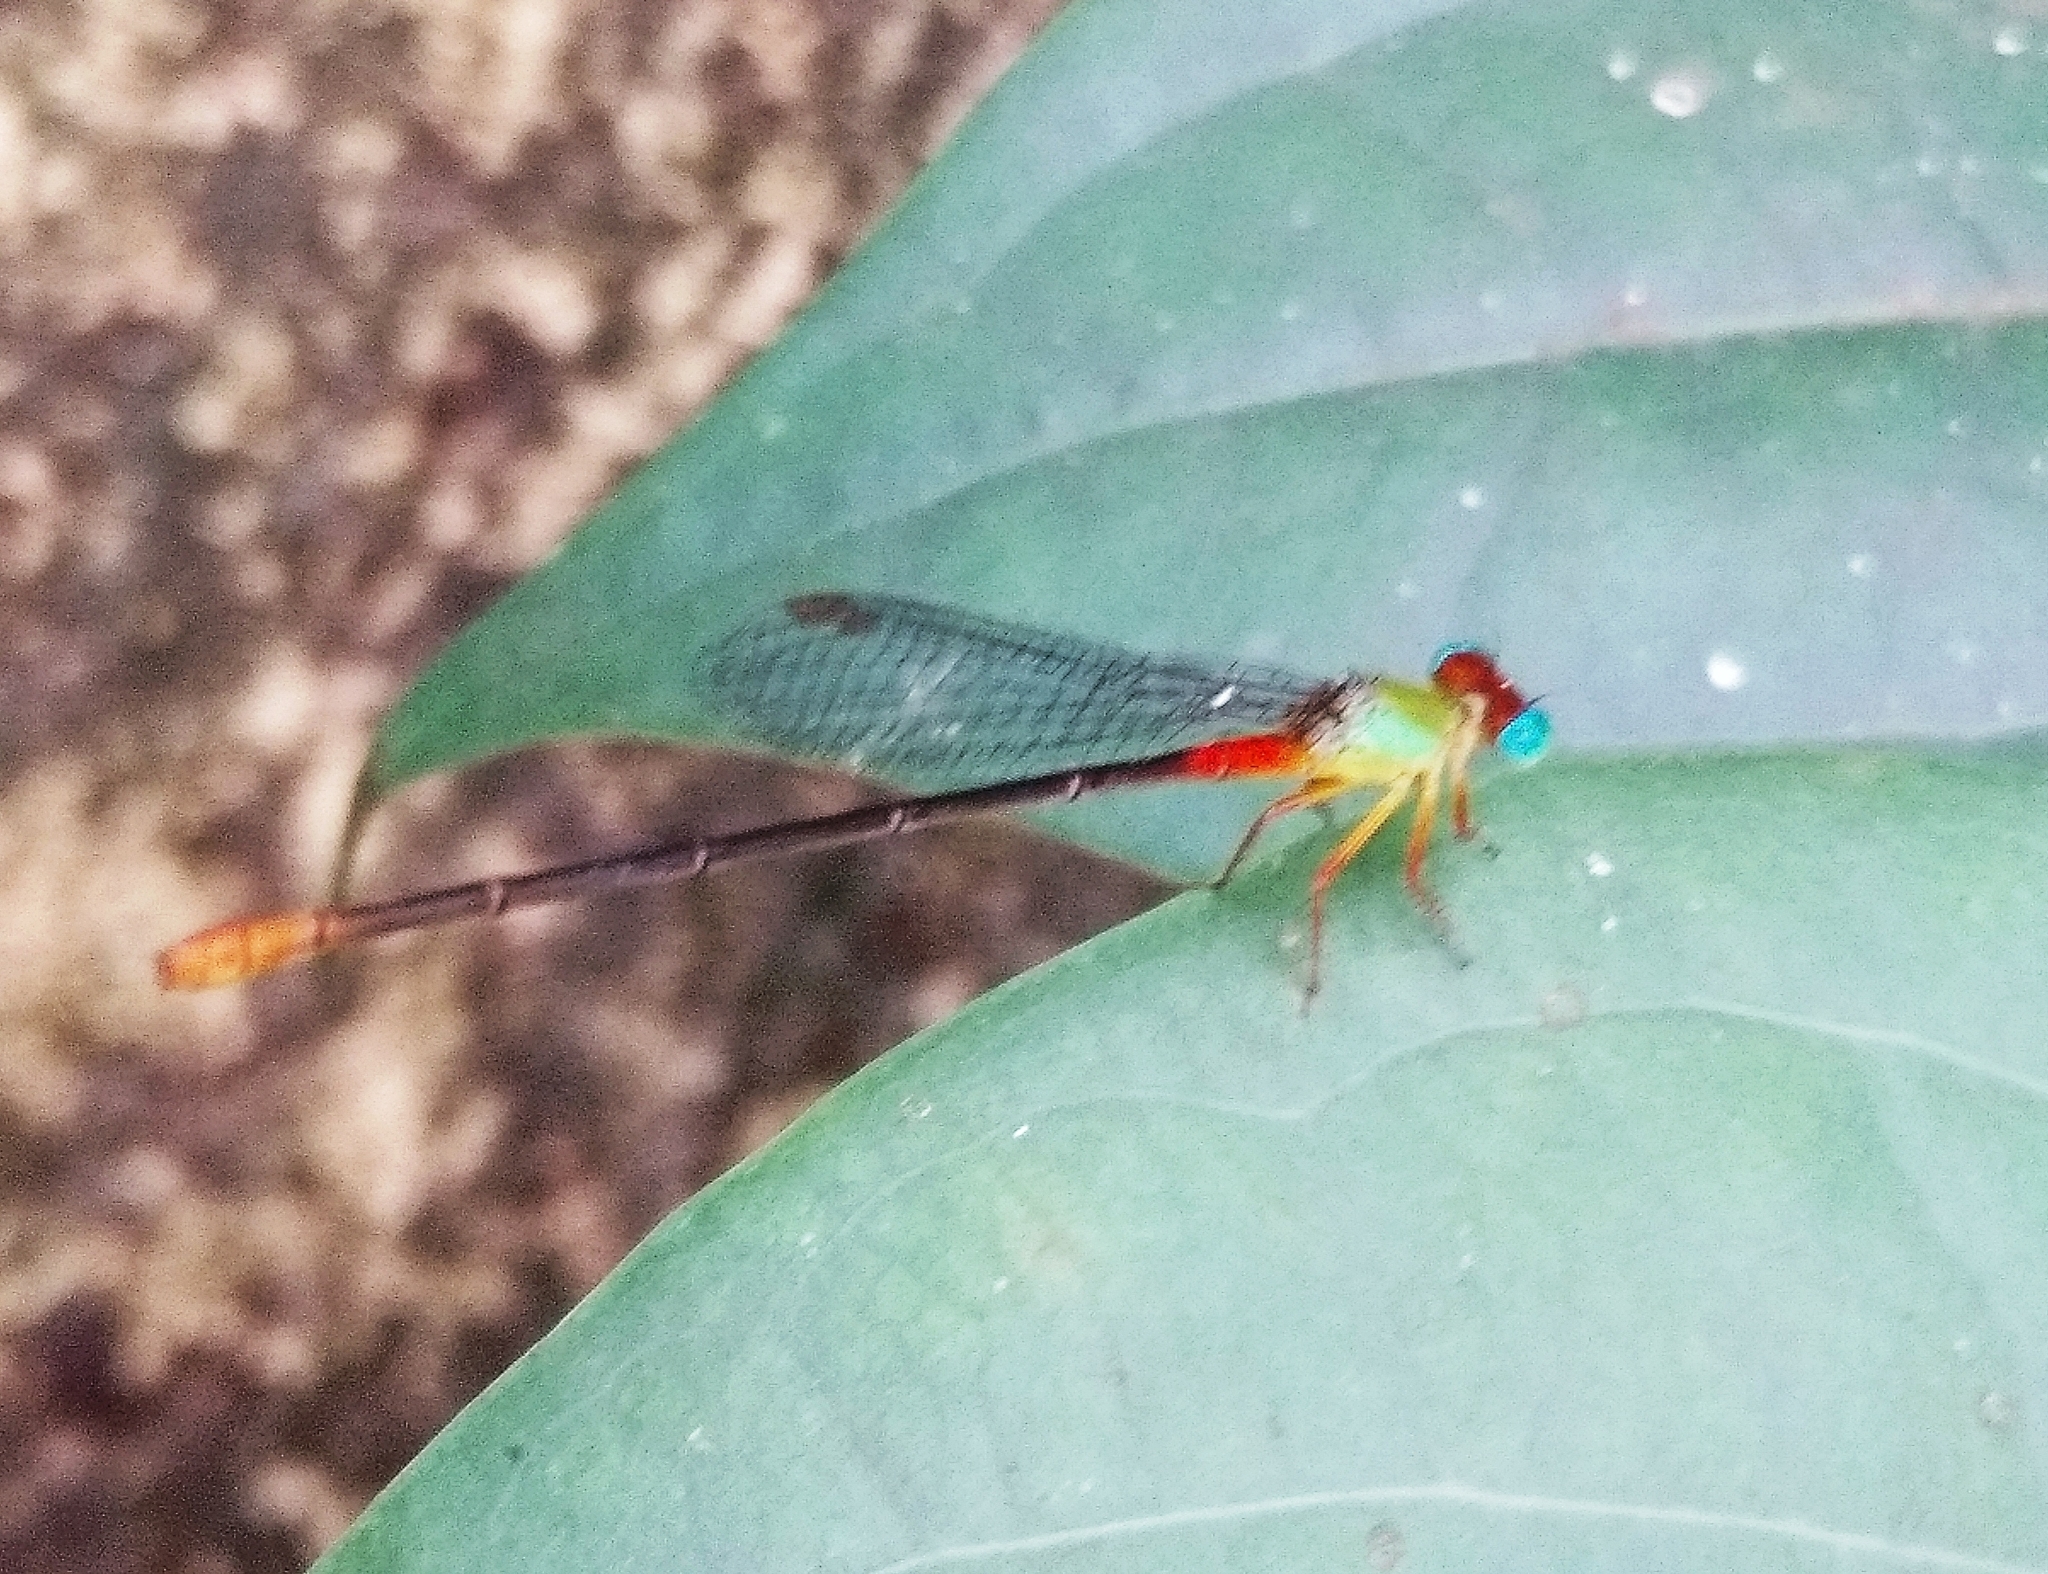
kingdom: Animalia
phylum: Arthropoda
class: Insecta
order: Odonata
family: Coenagrionidae
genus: Ceriagrion
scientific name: Ceriagrion cerinorubellum
